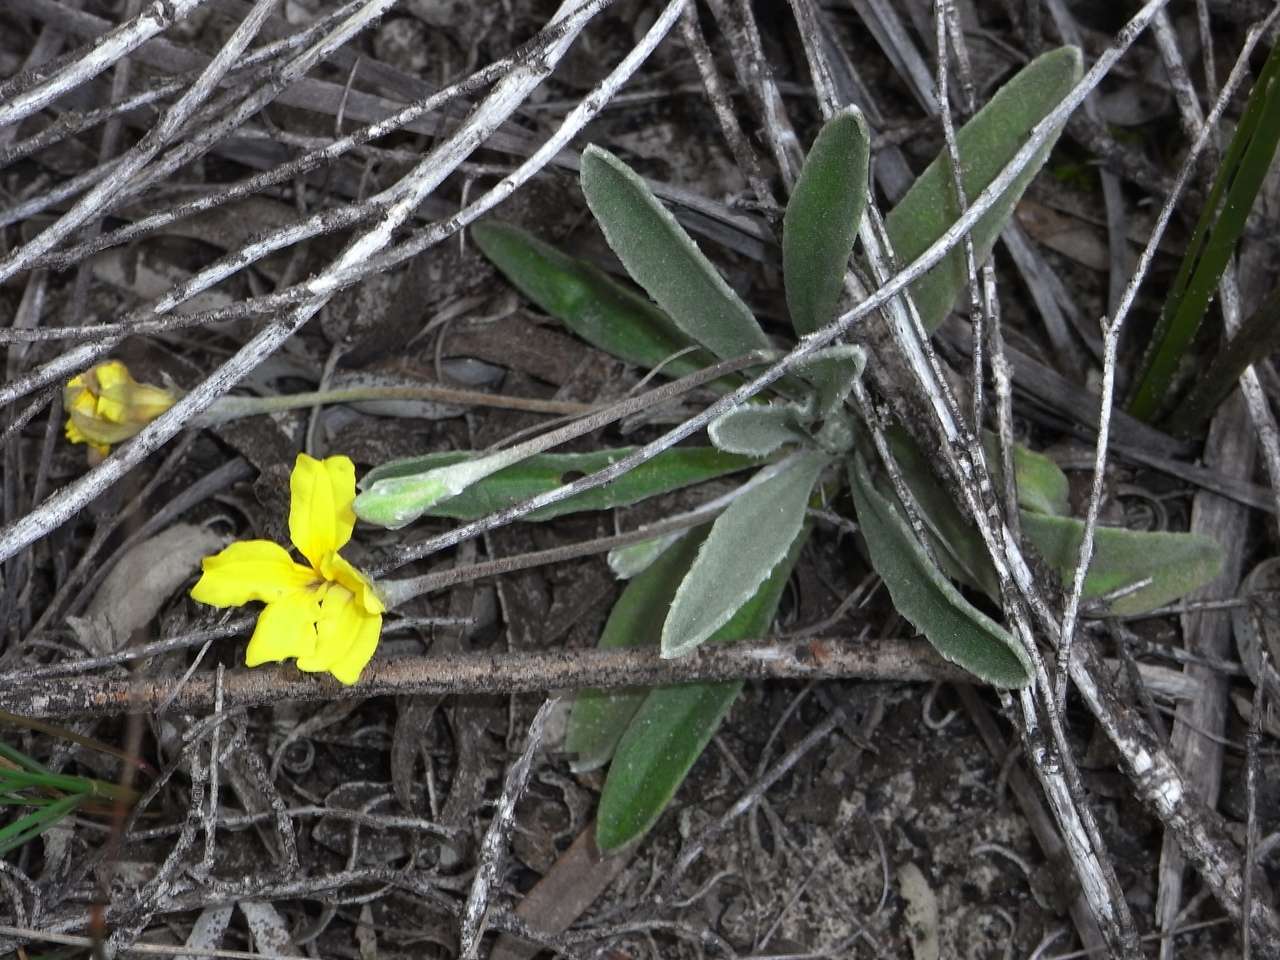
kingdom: Plantae
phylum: Tracheophyta
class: Magnoliopsida
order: Asterales
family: Goodeniaceae
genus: Goodenia
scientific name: Goodenia willisiana
